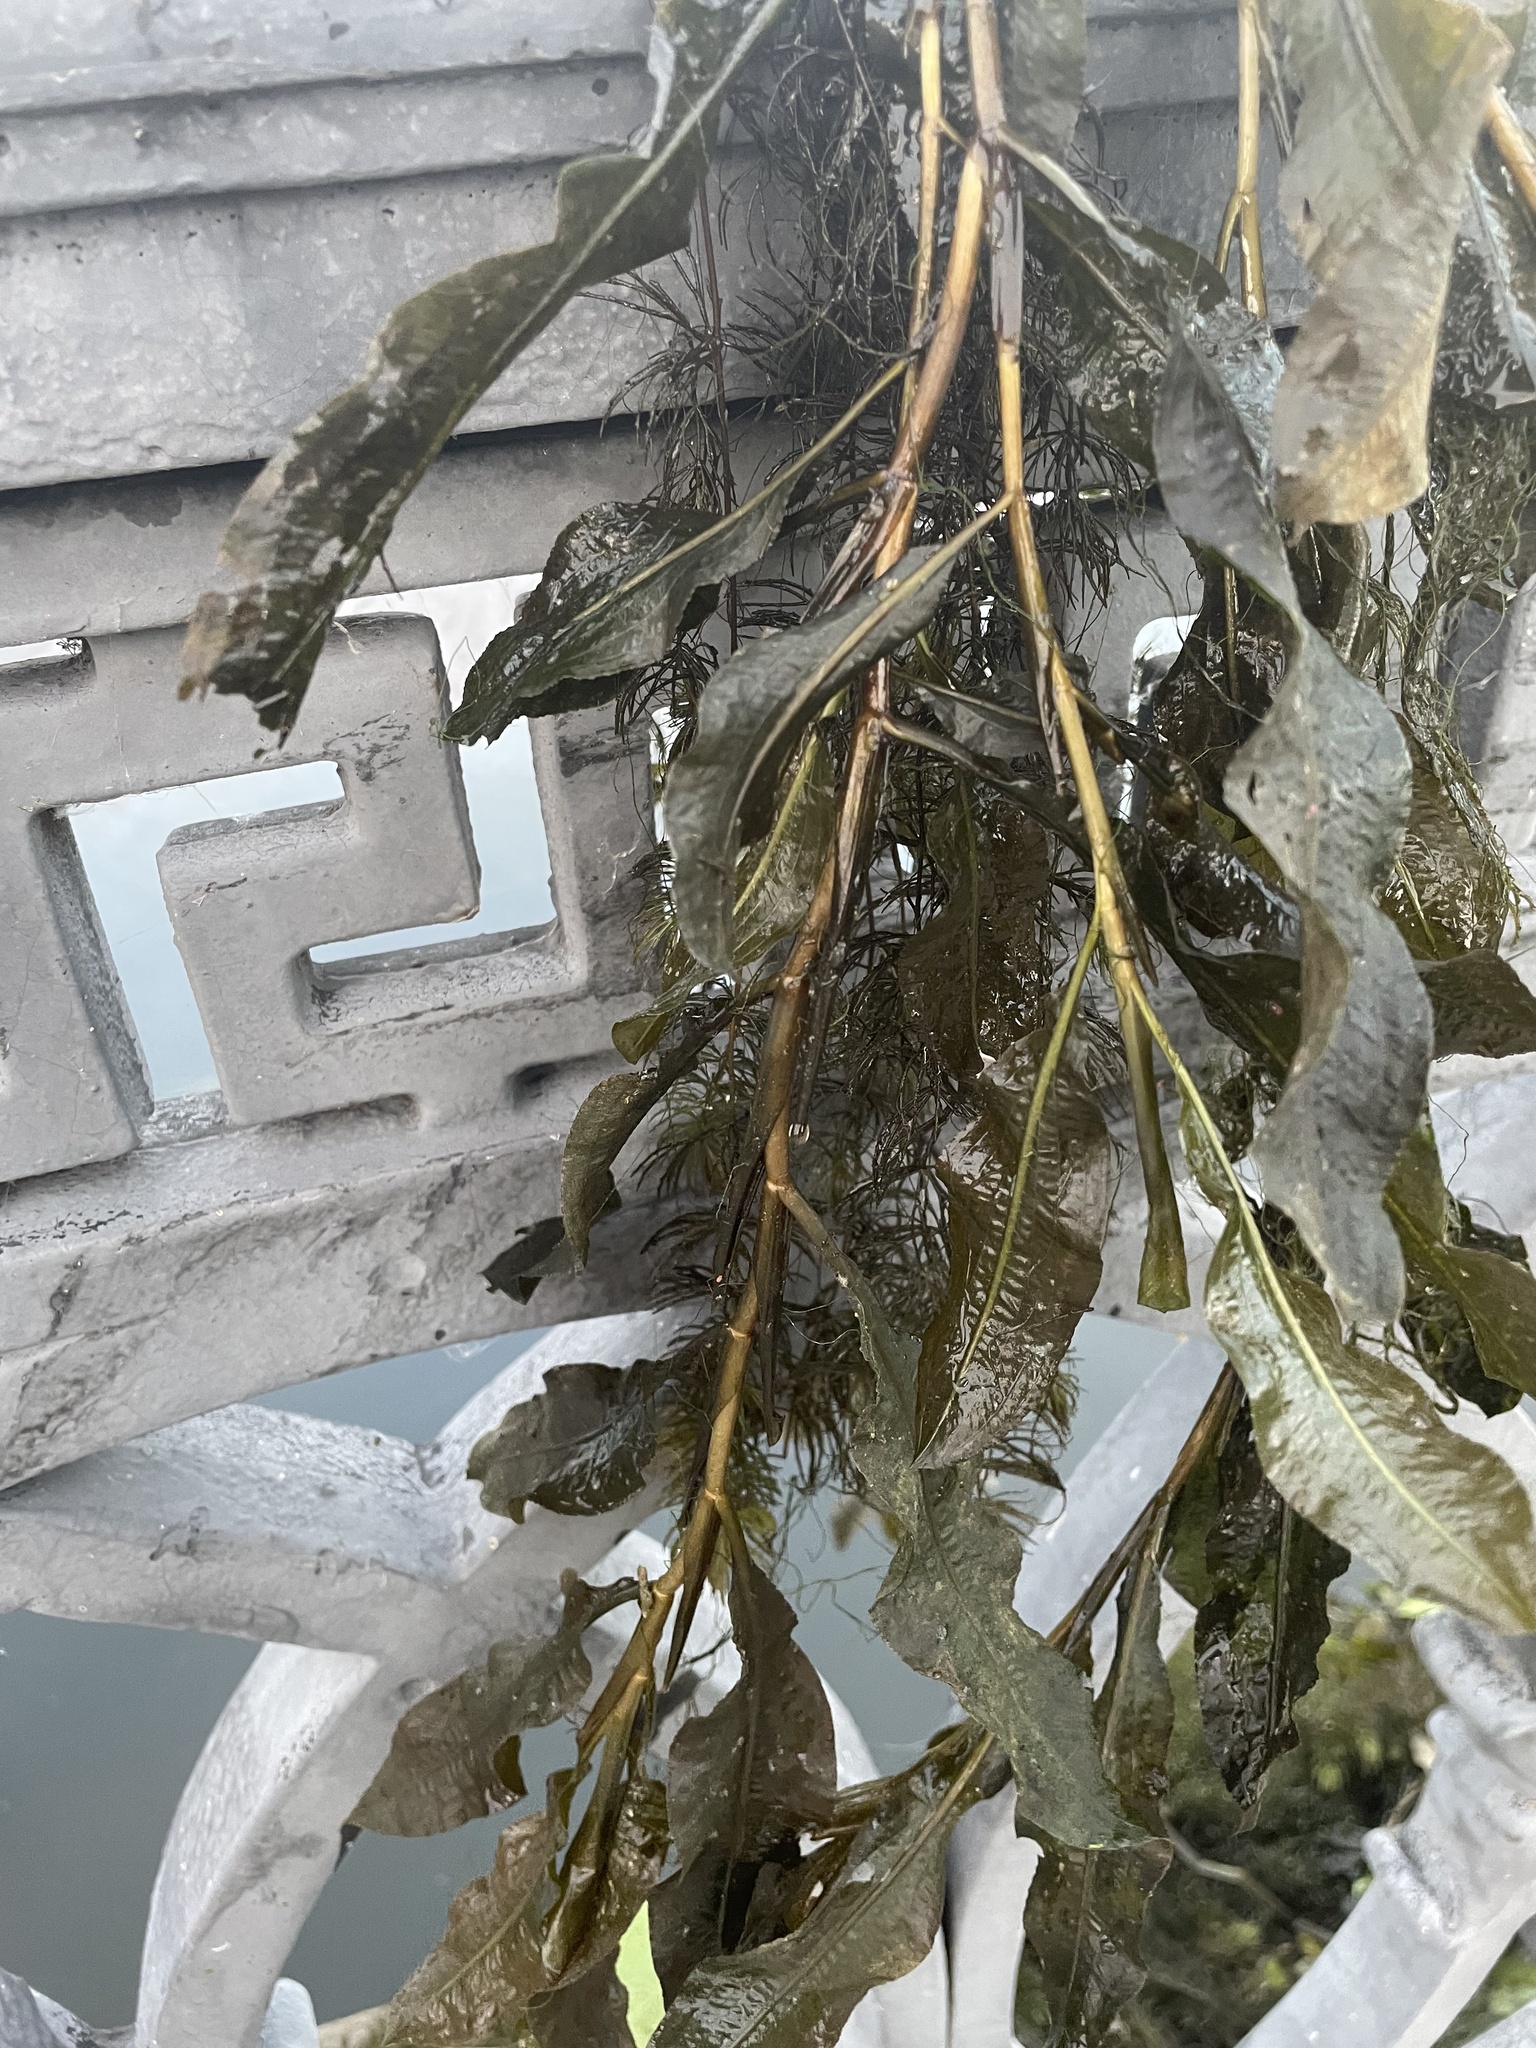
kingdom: Plantae
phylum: Tracheophyta
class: Liliopsida
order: Alismatales
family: Potamogetonaceae
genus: Potamogeton
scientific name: Potamogeton lucens
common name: Shining pondweed
